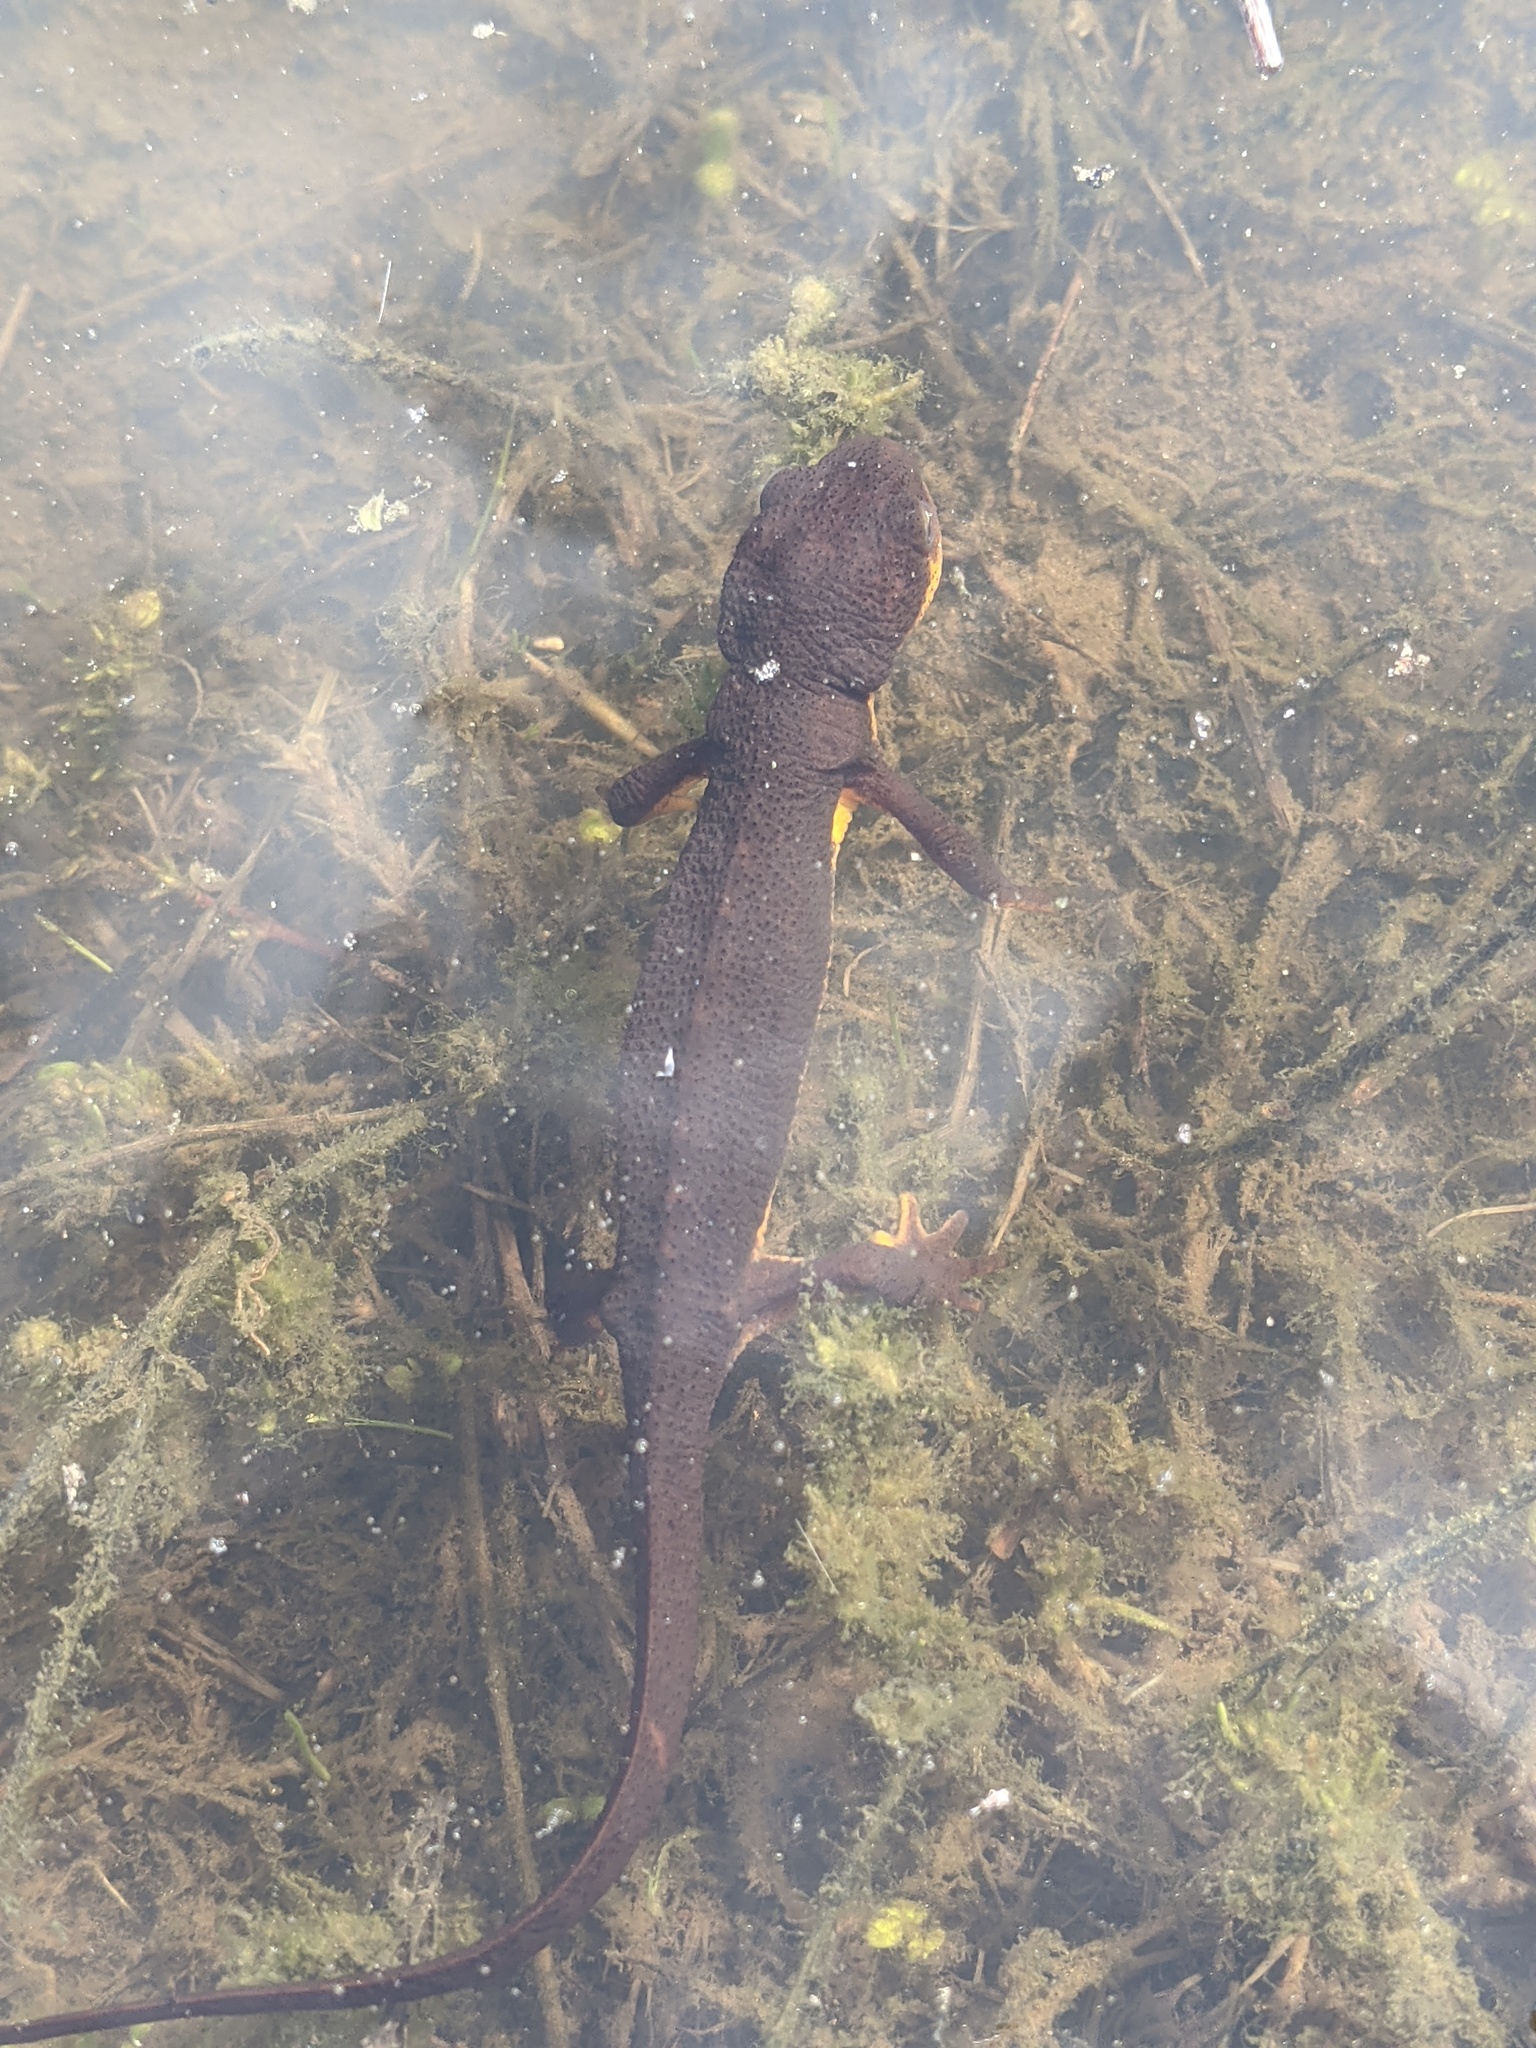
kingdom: Animalia
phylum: Chordata
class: Amphibia
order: Caudata
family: Salamandridae
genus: Taricha
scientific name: Taricha granulosa
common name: Roughskin newt
